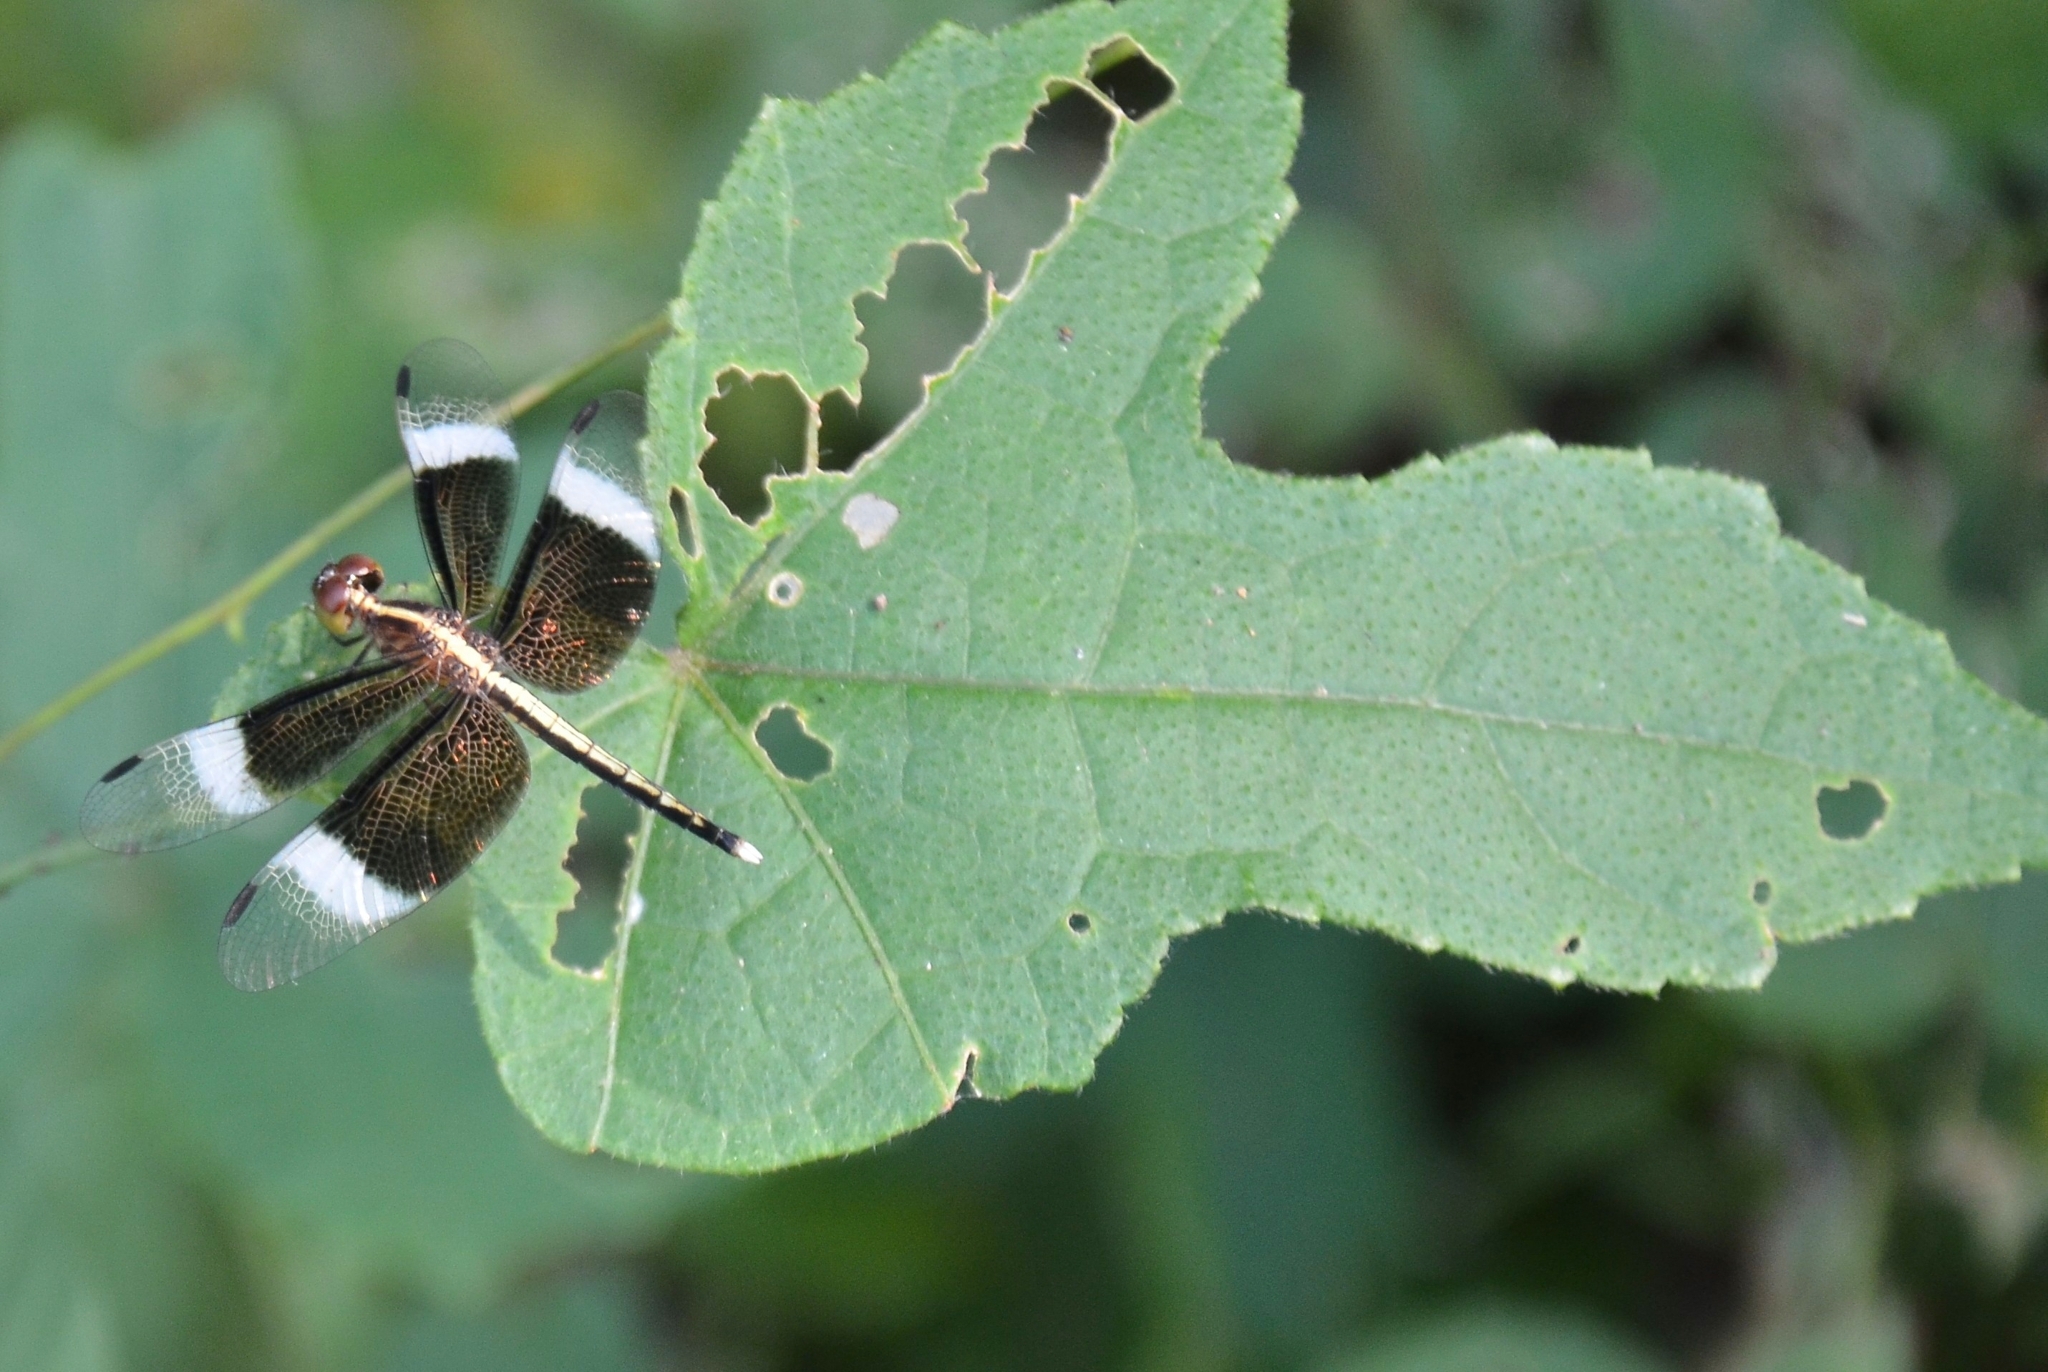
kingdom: Animalia
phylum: Arthropoda
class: Insecta
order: Odonata
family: Libellulidae
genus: Neurothemis
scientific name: Neurothemis tullia
